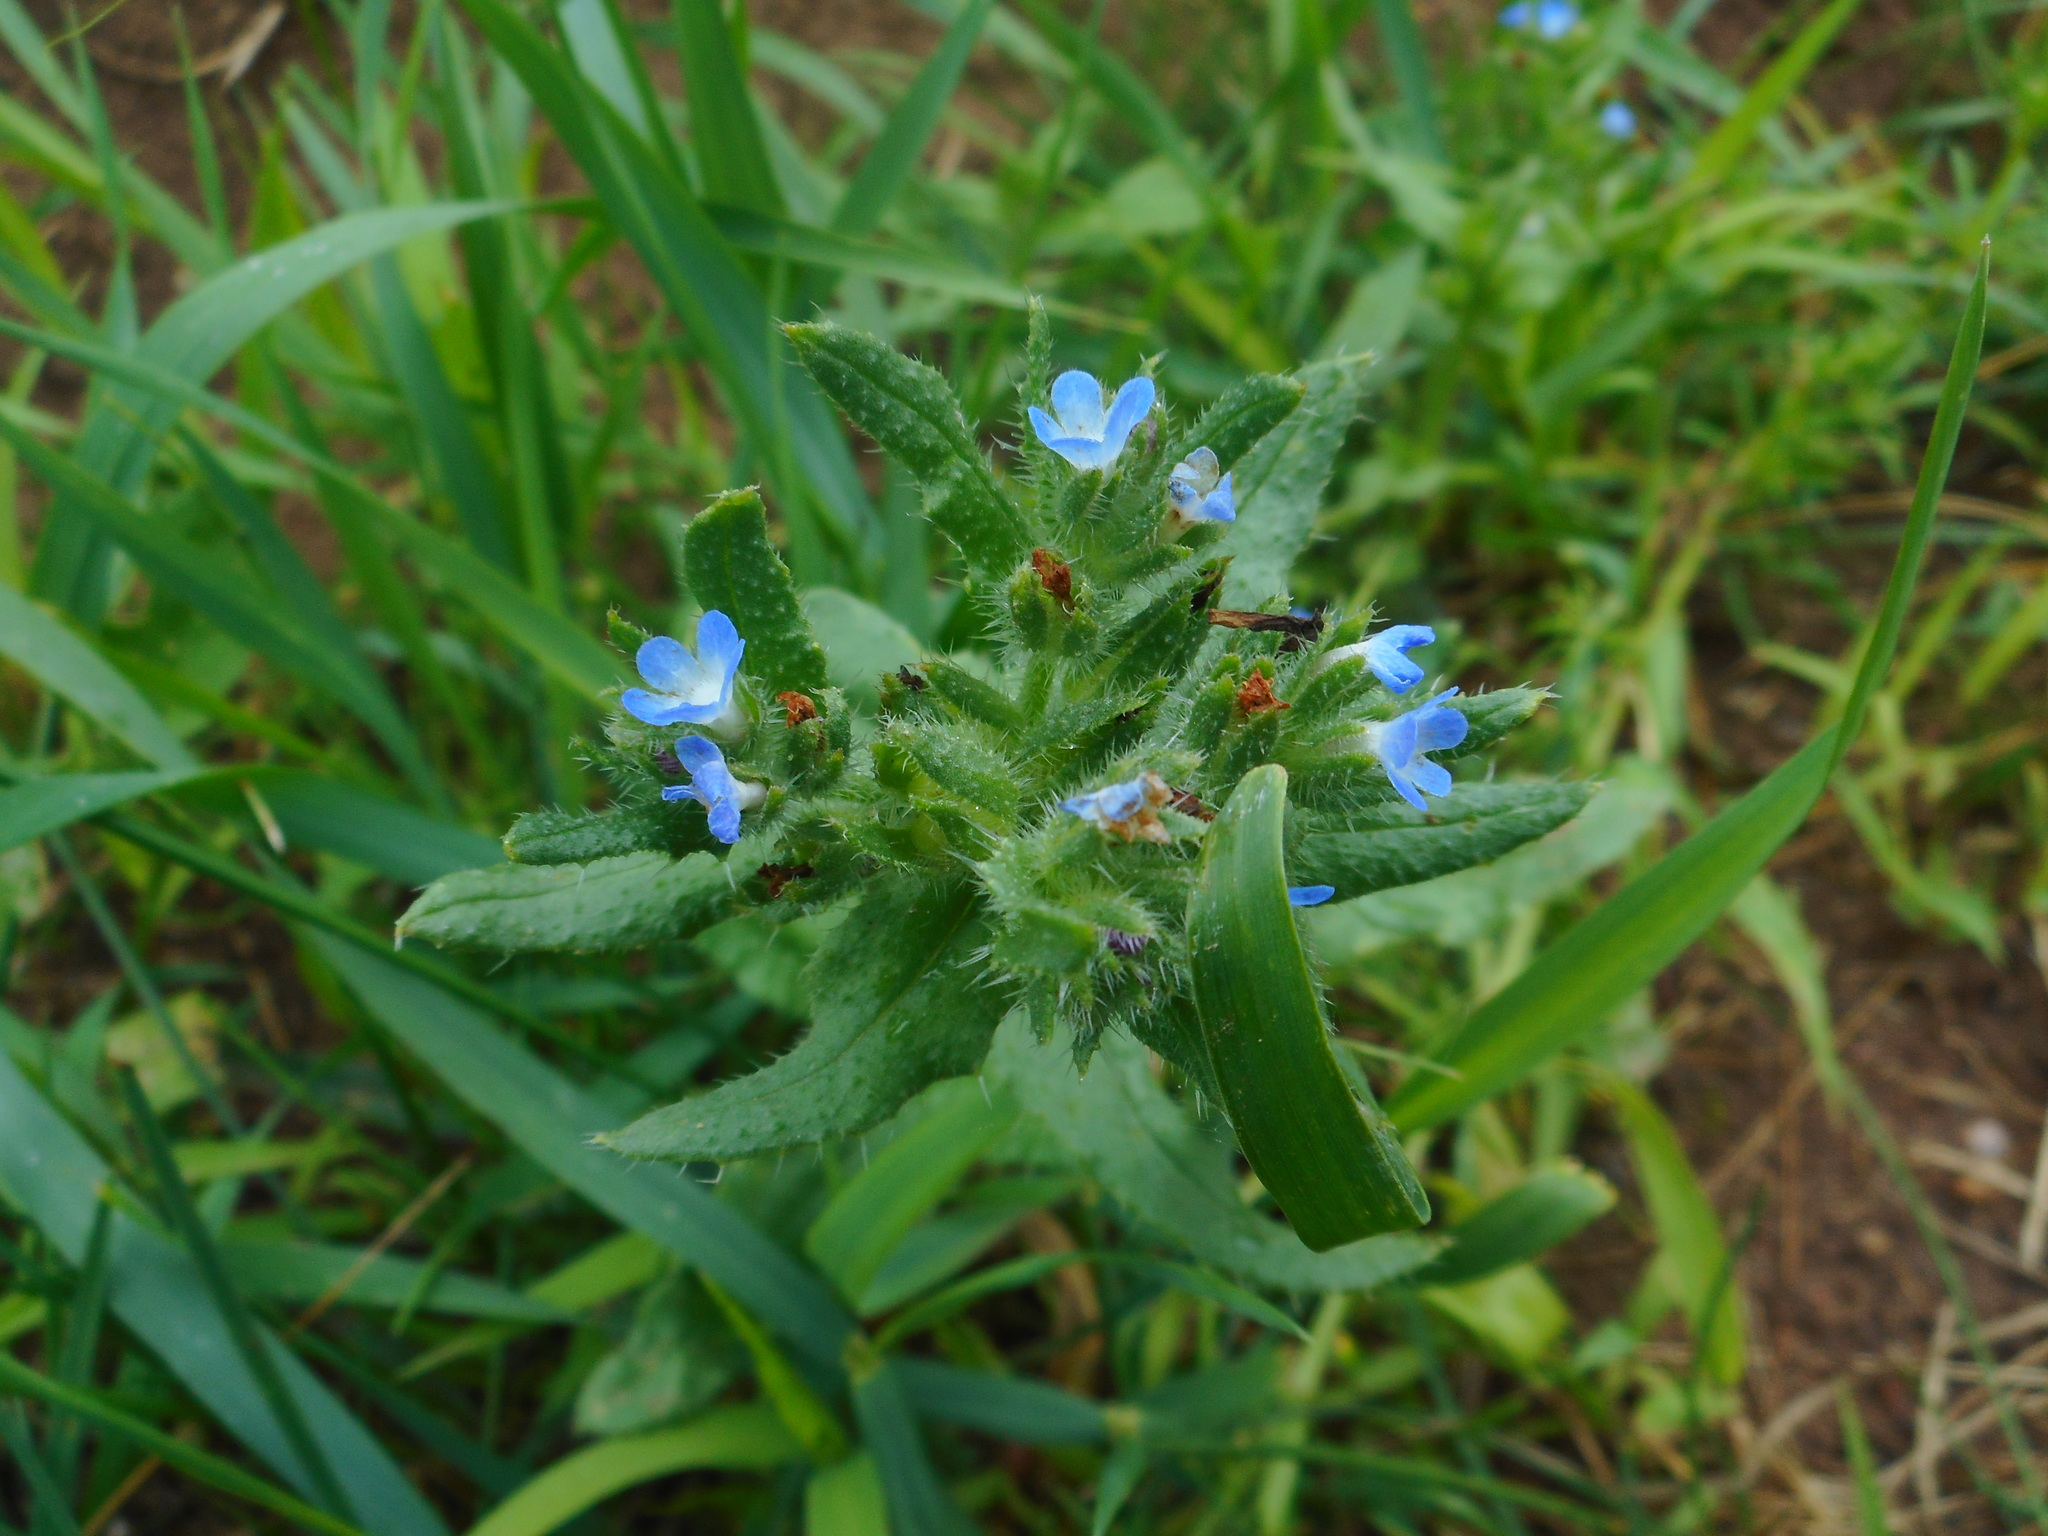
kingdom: Plantae
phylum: Tracheophyta
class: Magnoliopsida
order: Boraginales
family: Boraginaceae
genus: Lycopsis
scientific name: Lycopsis arvensis
